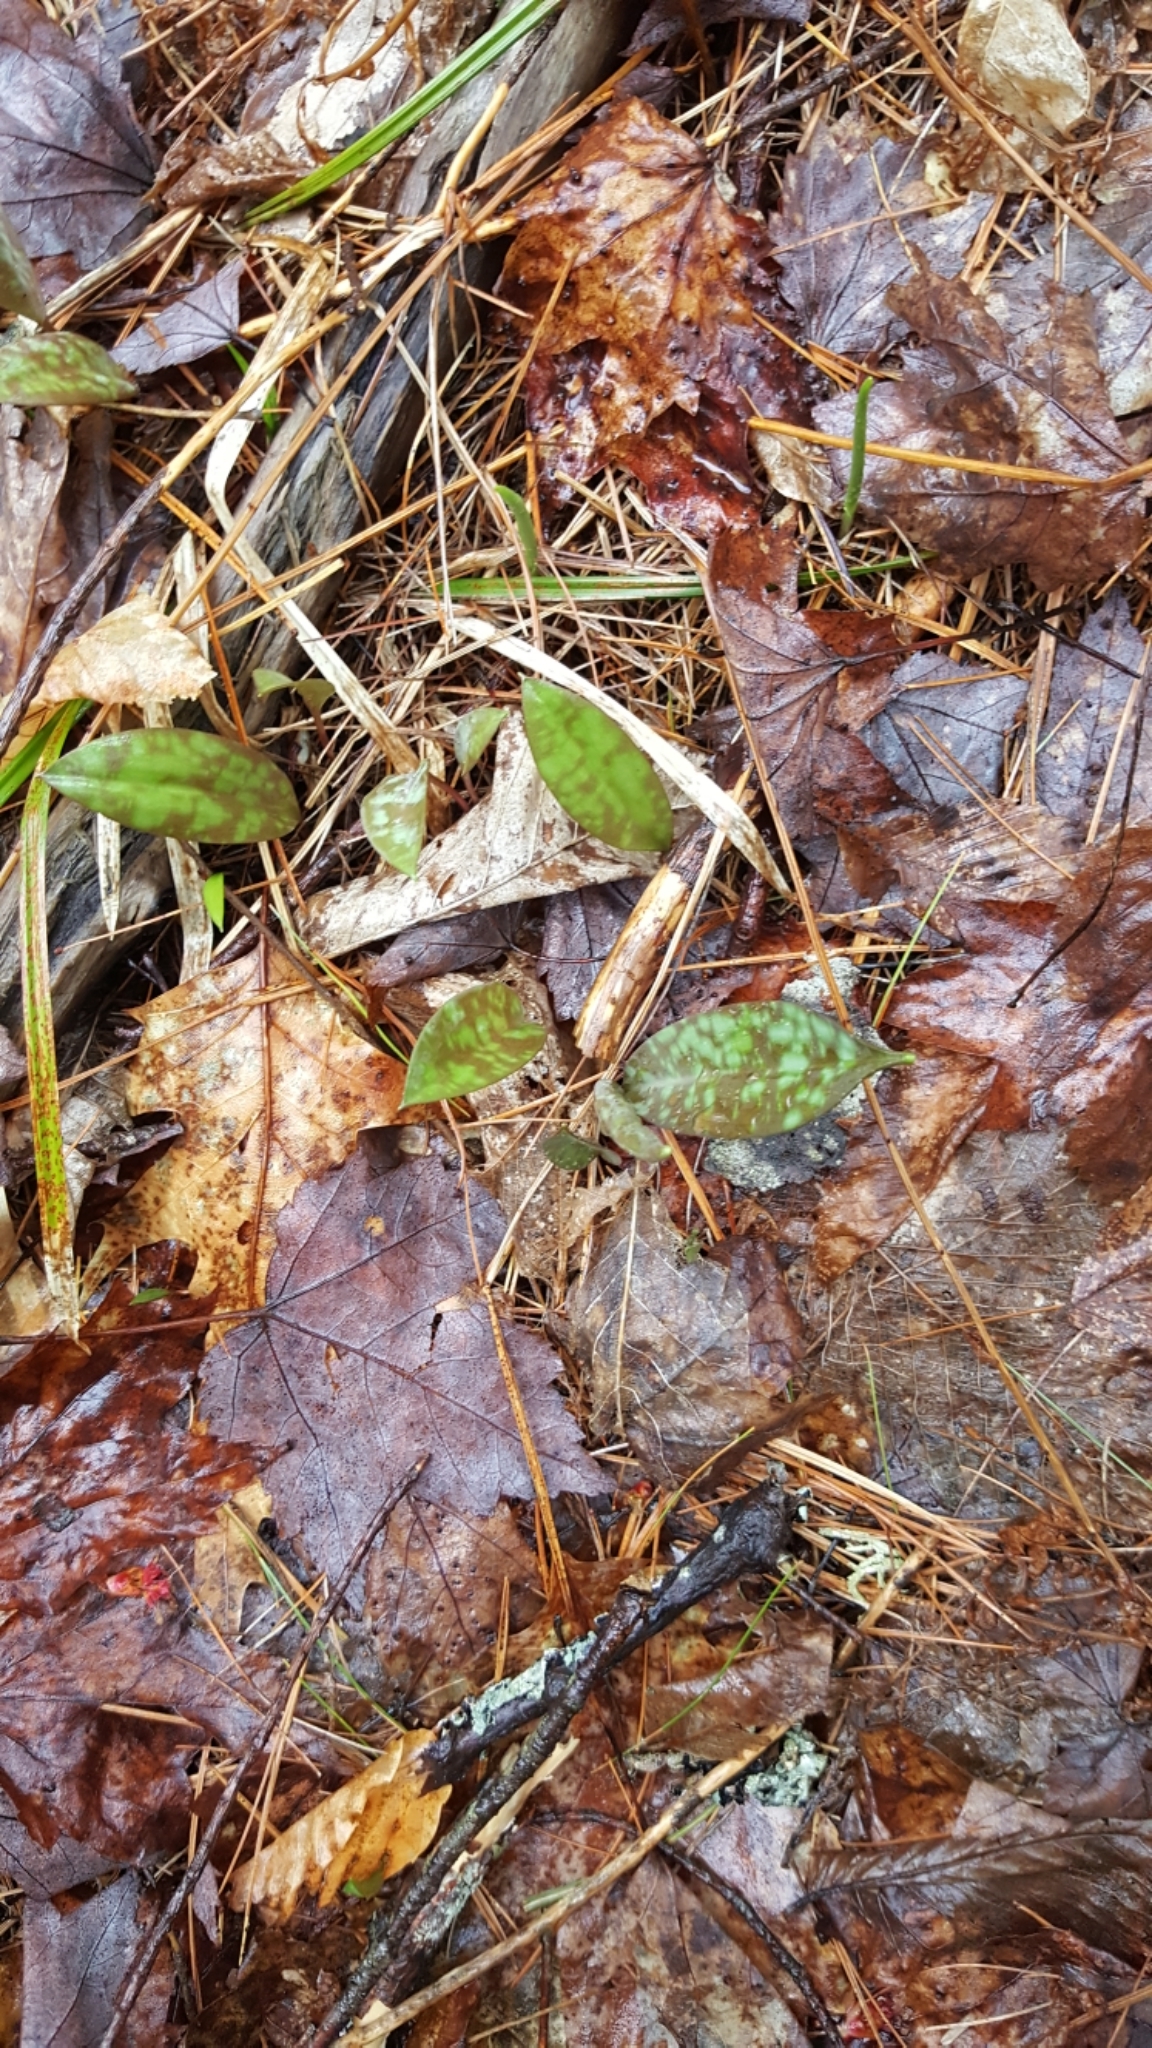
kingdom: Plantae
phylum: Tracheophyta
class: Liliopsida
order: Liliales
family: Liliaceae
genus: Erythronium
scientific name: Erythronium americanum
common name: Yellow adder's-tongue
